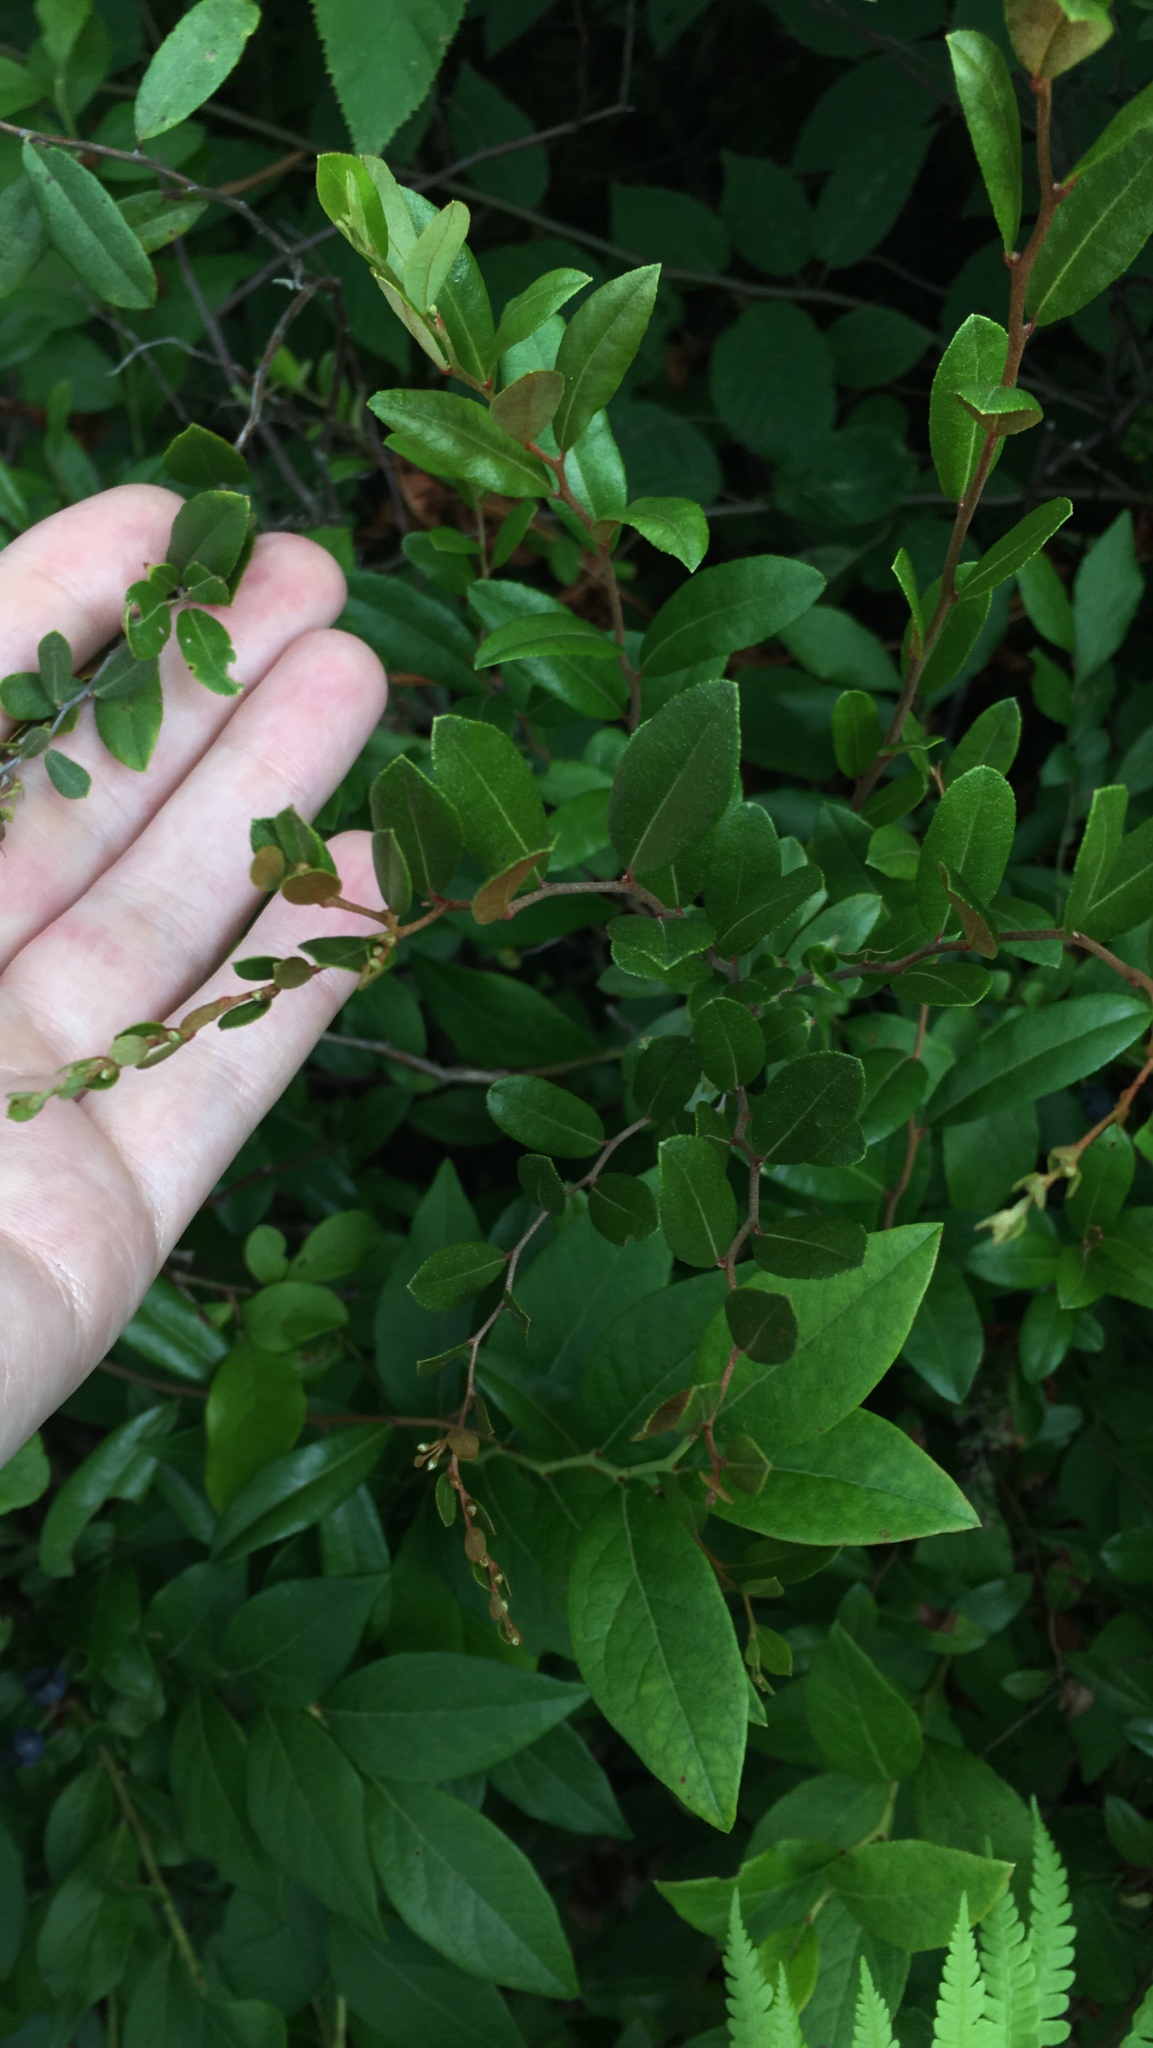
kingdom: Plantae
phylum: Tracheophyta
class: Magnoliopsida
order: Ericales
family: Ericaceae
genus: Chamaedaphne
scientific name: Chamaedaphne calyculata
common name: Leatherleaf
